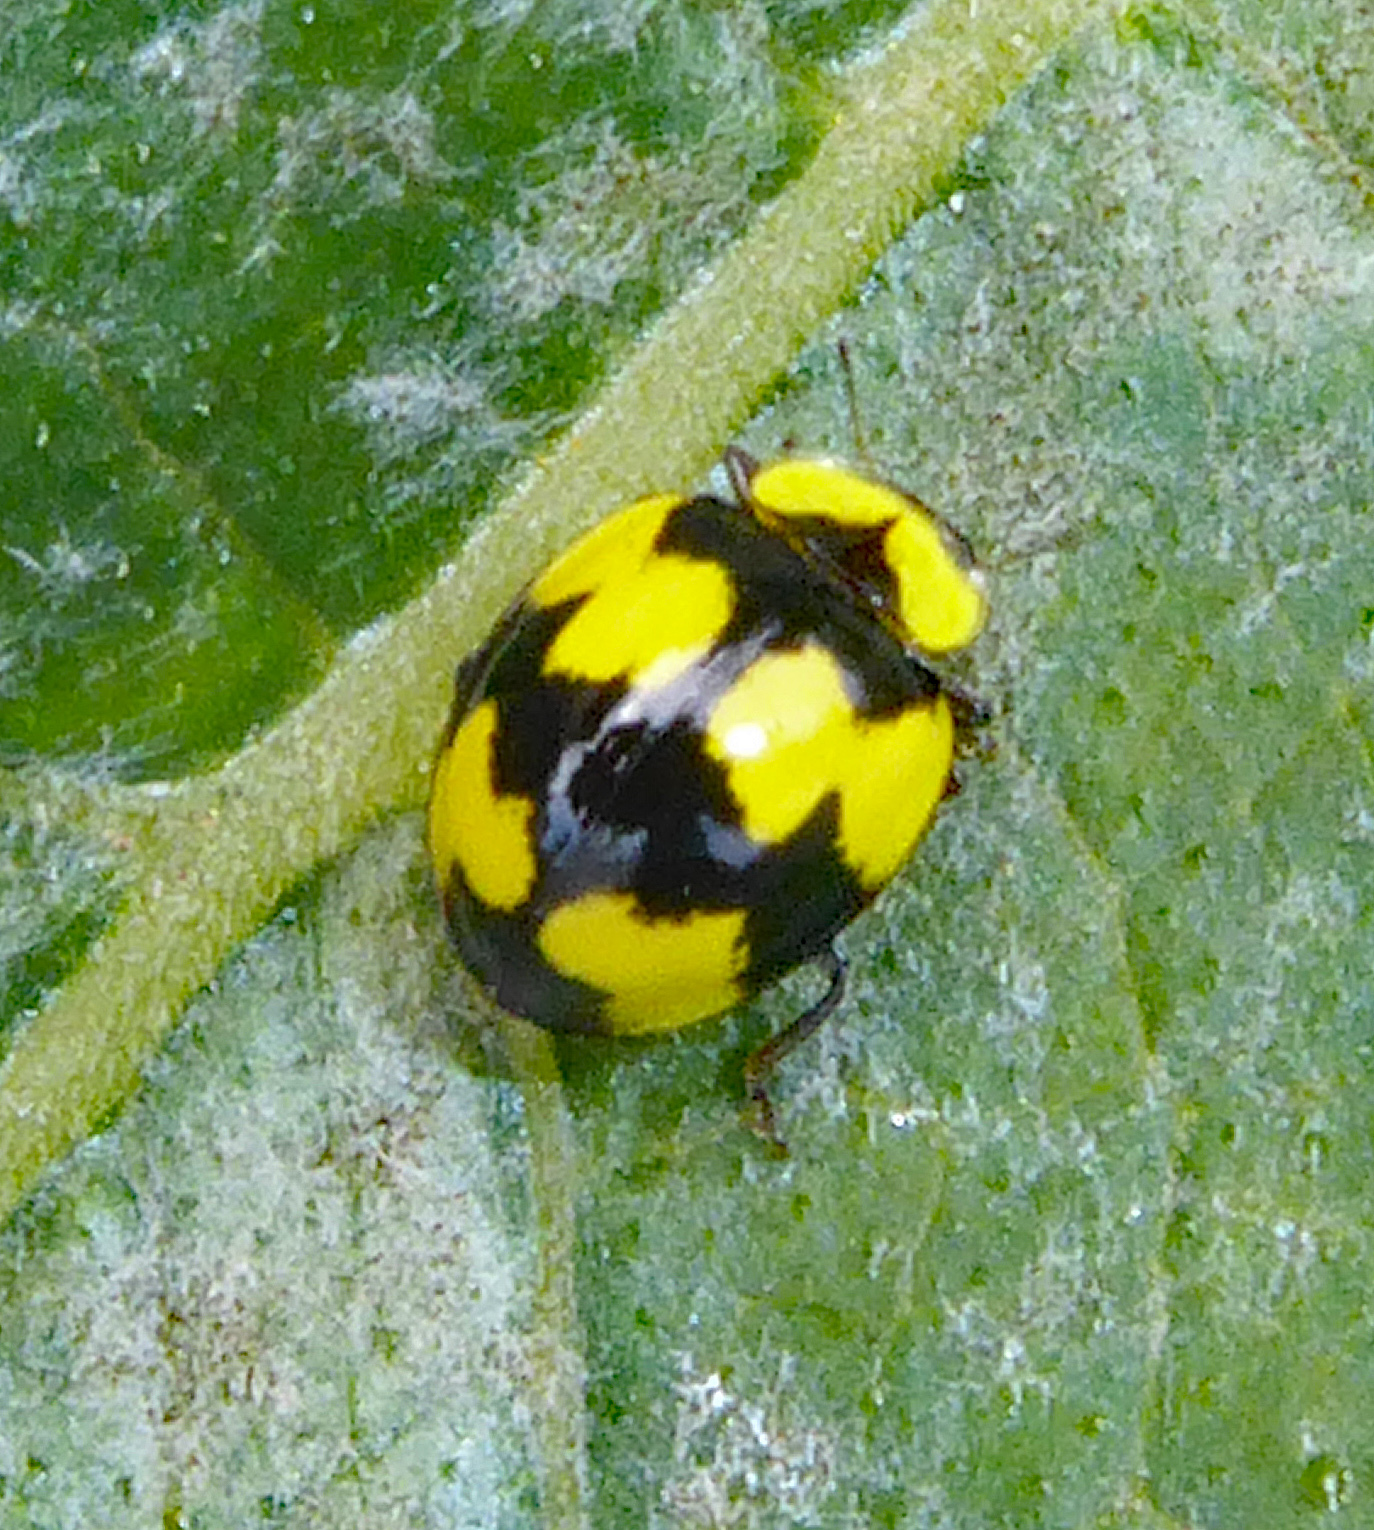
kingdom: Animalia
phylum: Arthropoda
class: Insecta
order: Coleoptera
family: Coccinellidae
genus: Illeis
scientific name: Illeis galbula
